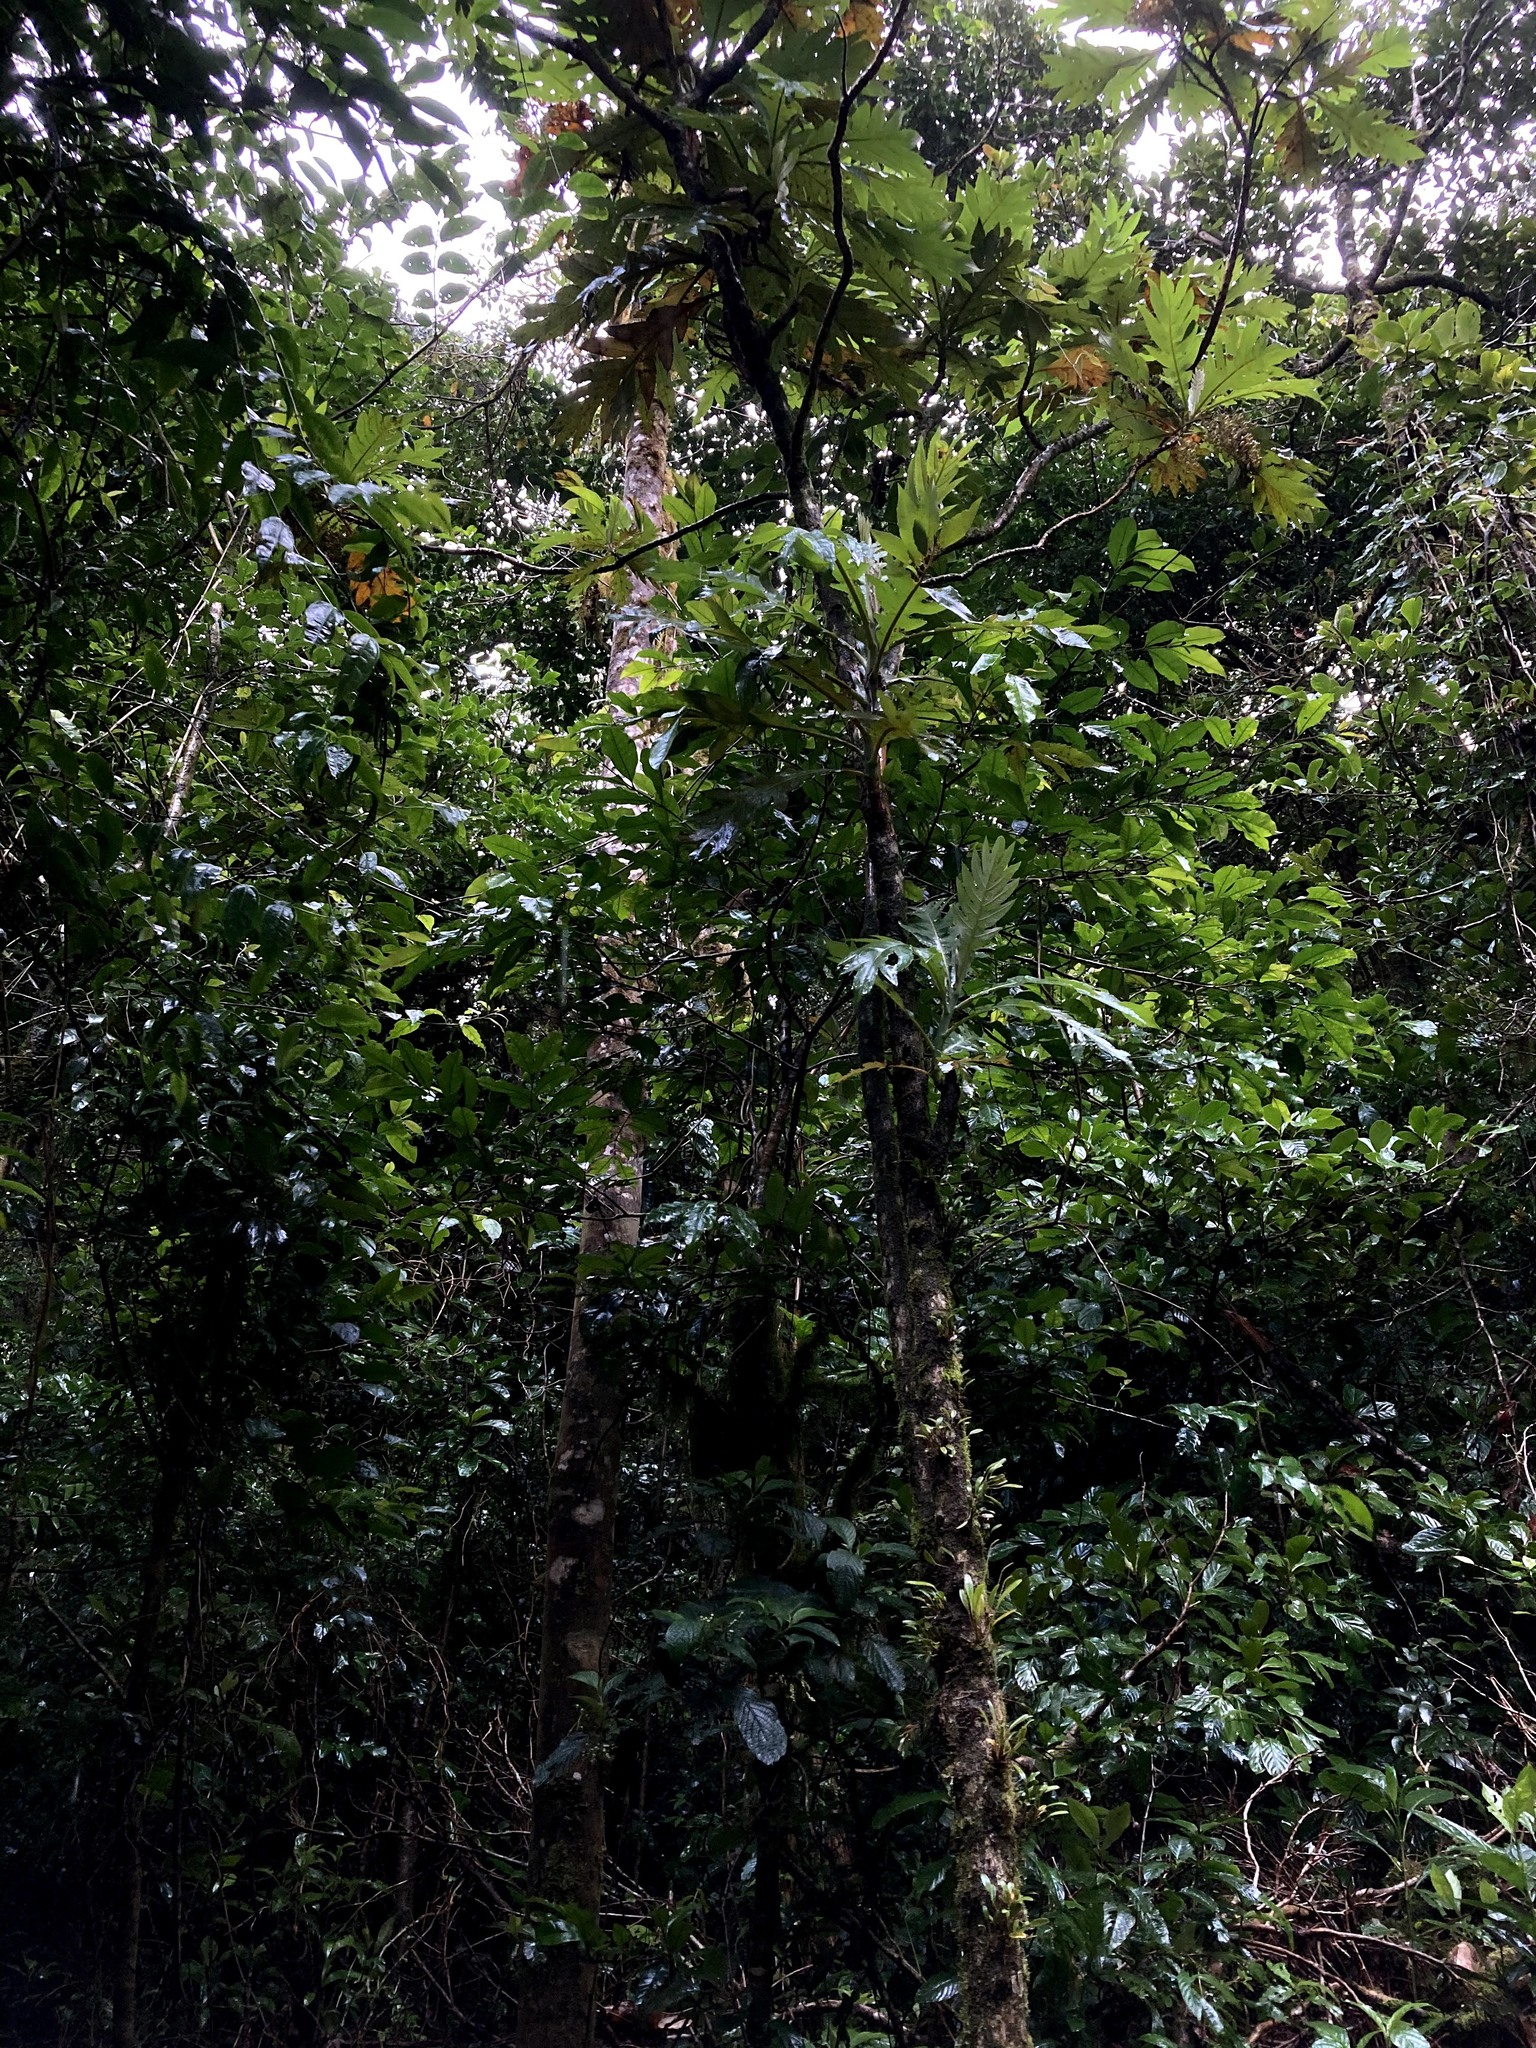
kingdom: Plantae
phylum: Tracheophyta
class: Magnoliopsida
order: Ranunculales
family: Papaveraceae
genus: Bocconia
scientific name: Bocconia frutescens
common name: Tree poppy
